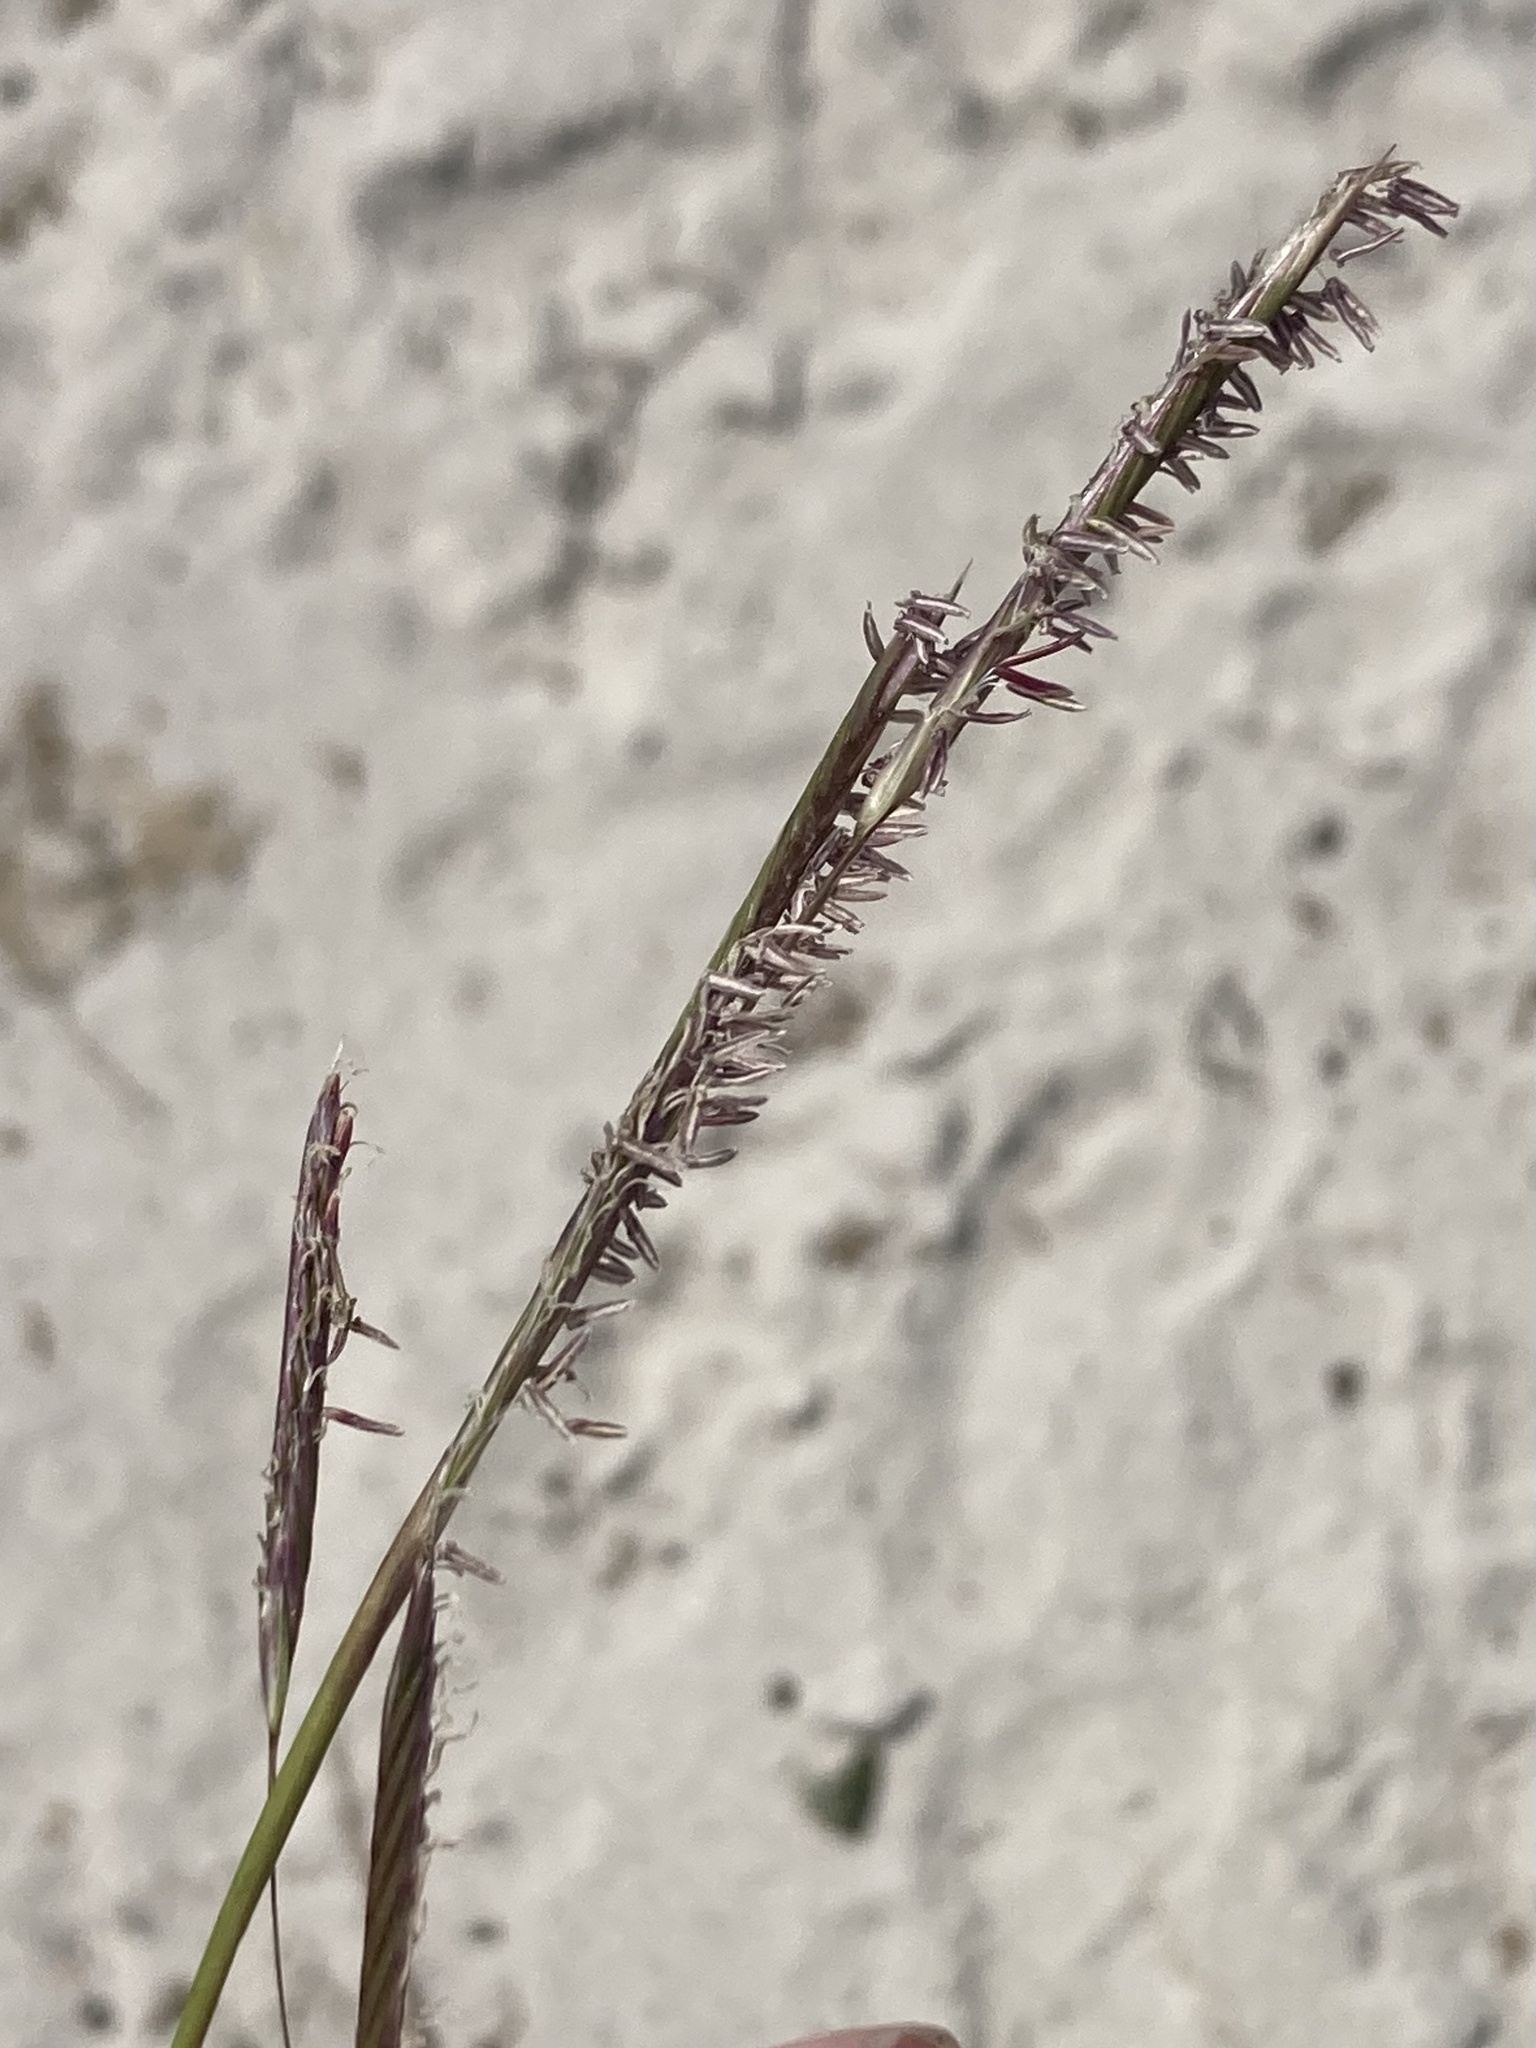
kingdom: Plantae
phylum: Tracheophyta
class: Liliopsida
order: Poales
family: Poaceae
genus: Sporobolus
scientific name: Sporobolus pumilus
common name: Highwater grass
